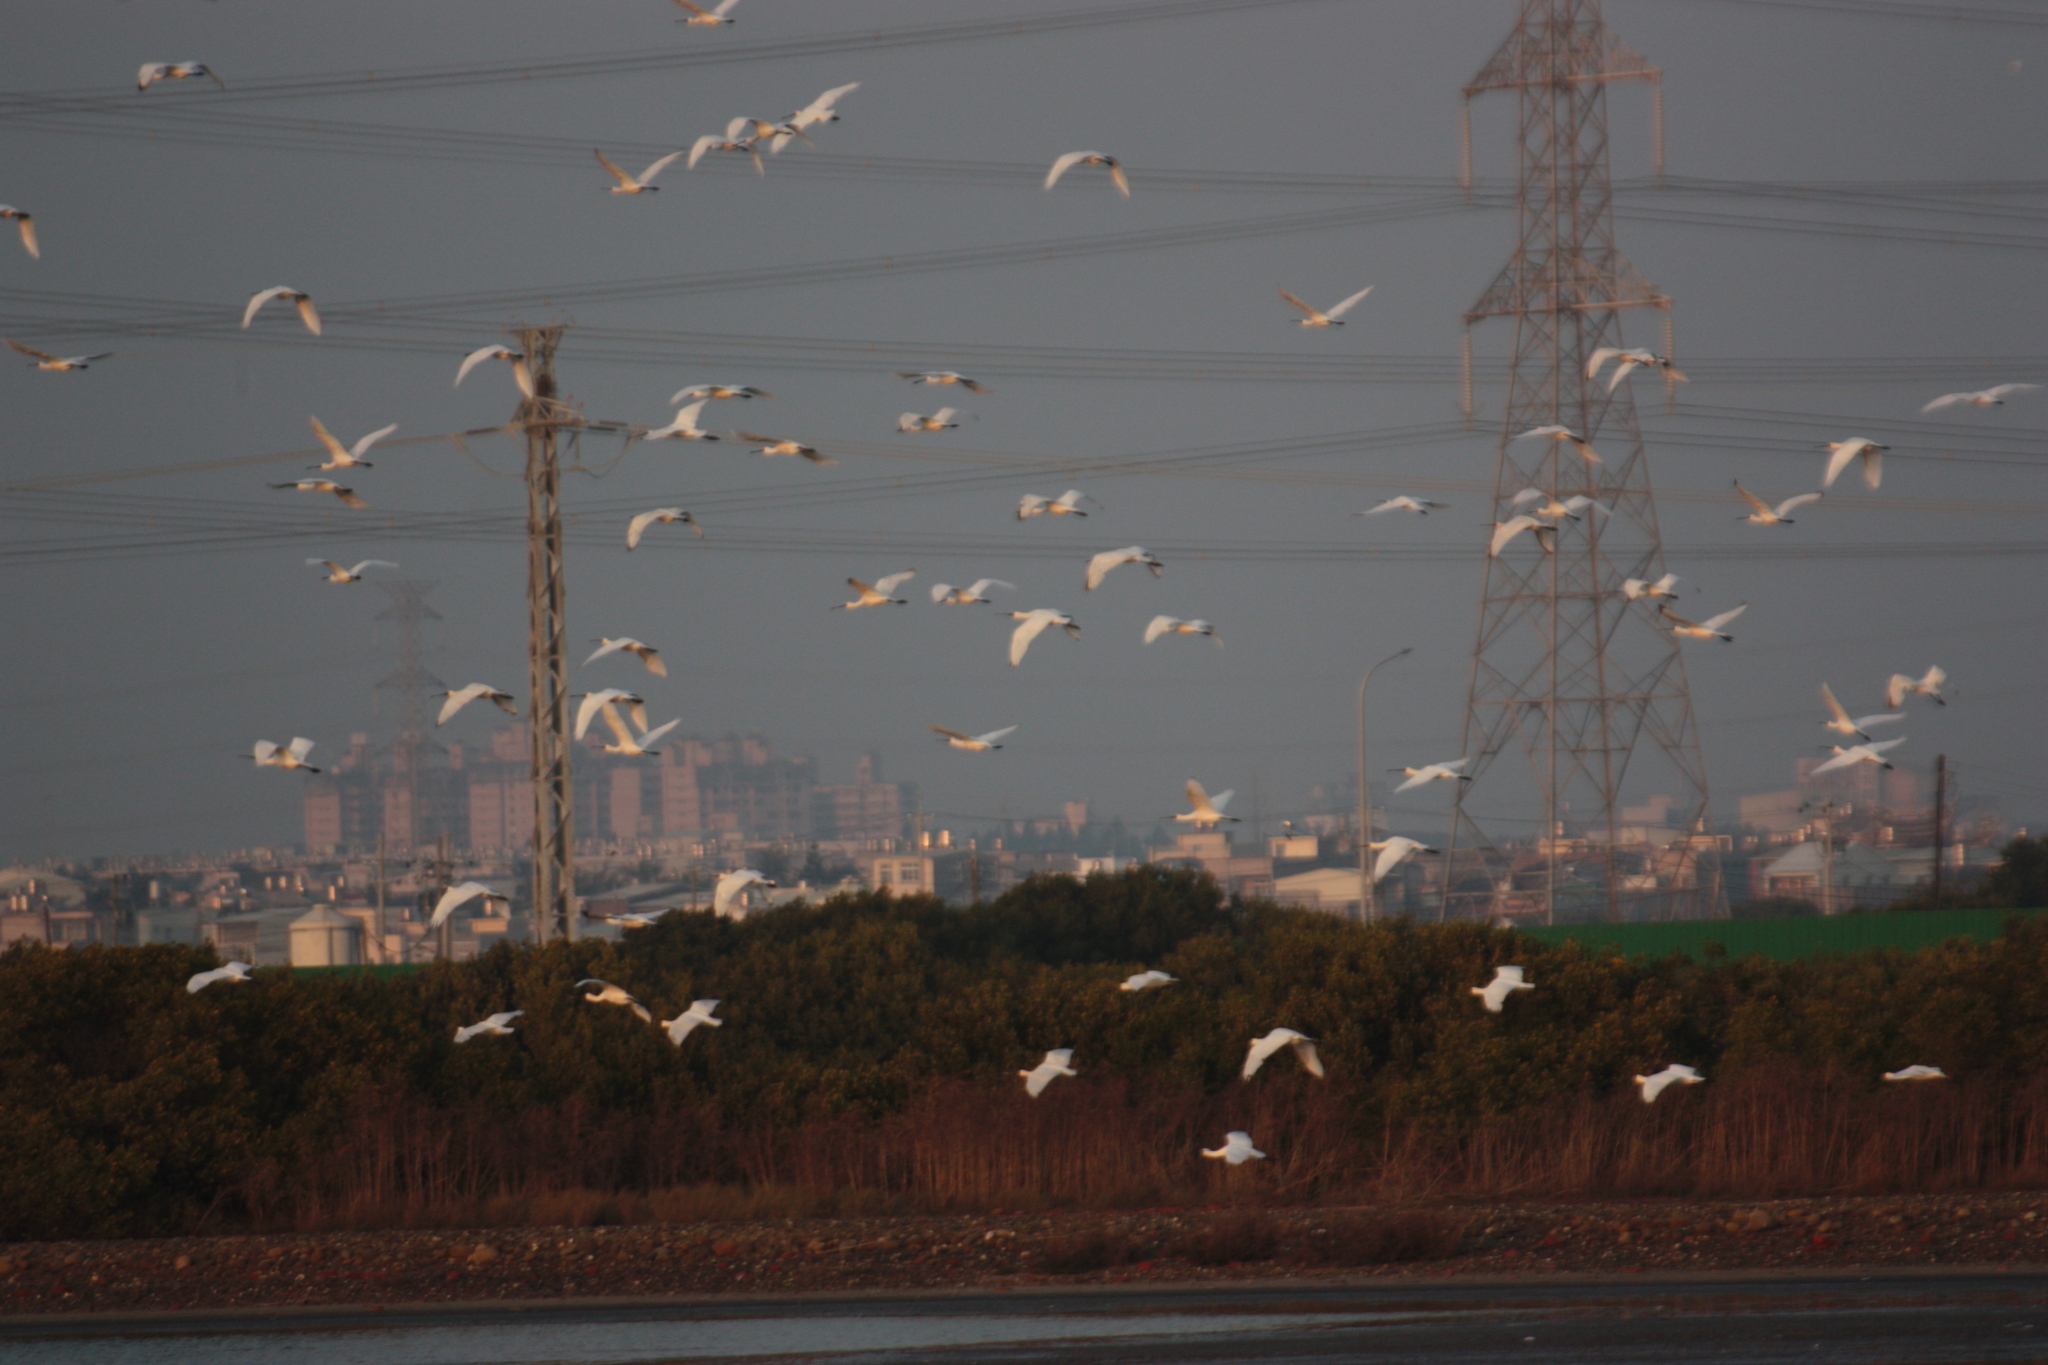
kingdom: Animalia
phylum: Chordata
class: Aves
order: Pelecaniformes
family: Threskiornithidae
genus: Platalea
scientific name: Platalea minor
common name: Black-faced spoonbill
